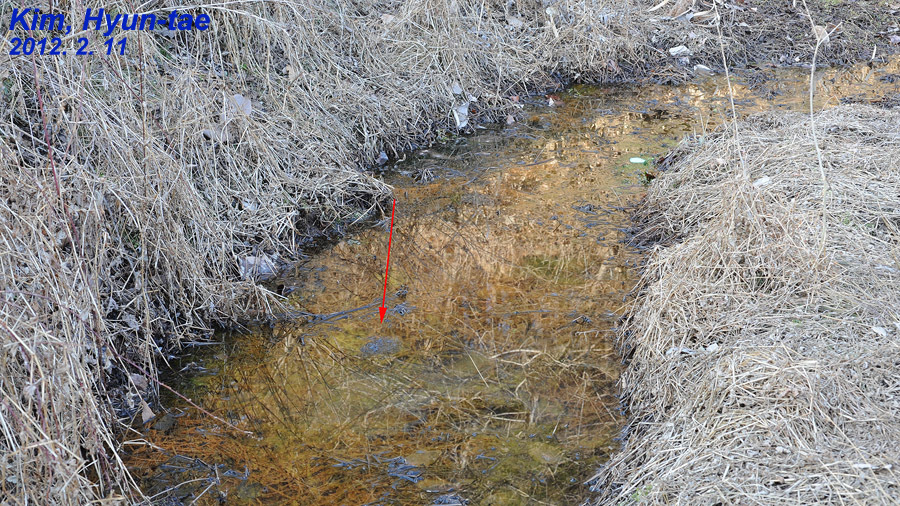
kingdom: Animalia
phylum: Chordata
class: Amphibia
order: Anura
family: Ranidae
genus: Rana
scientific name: Rana uenoi
